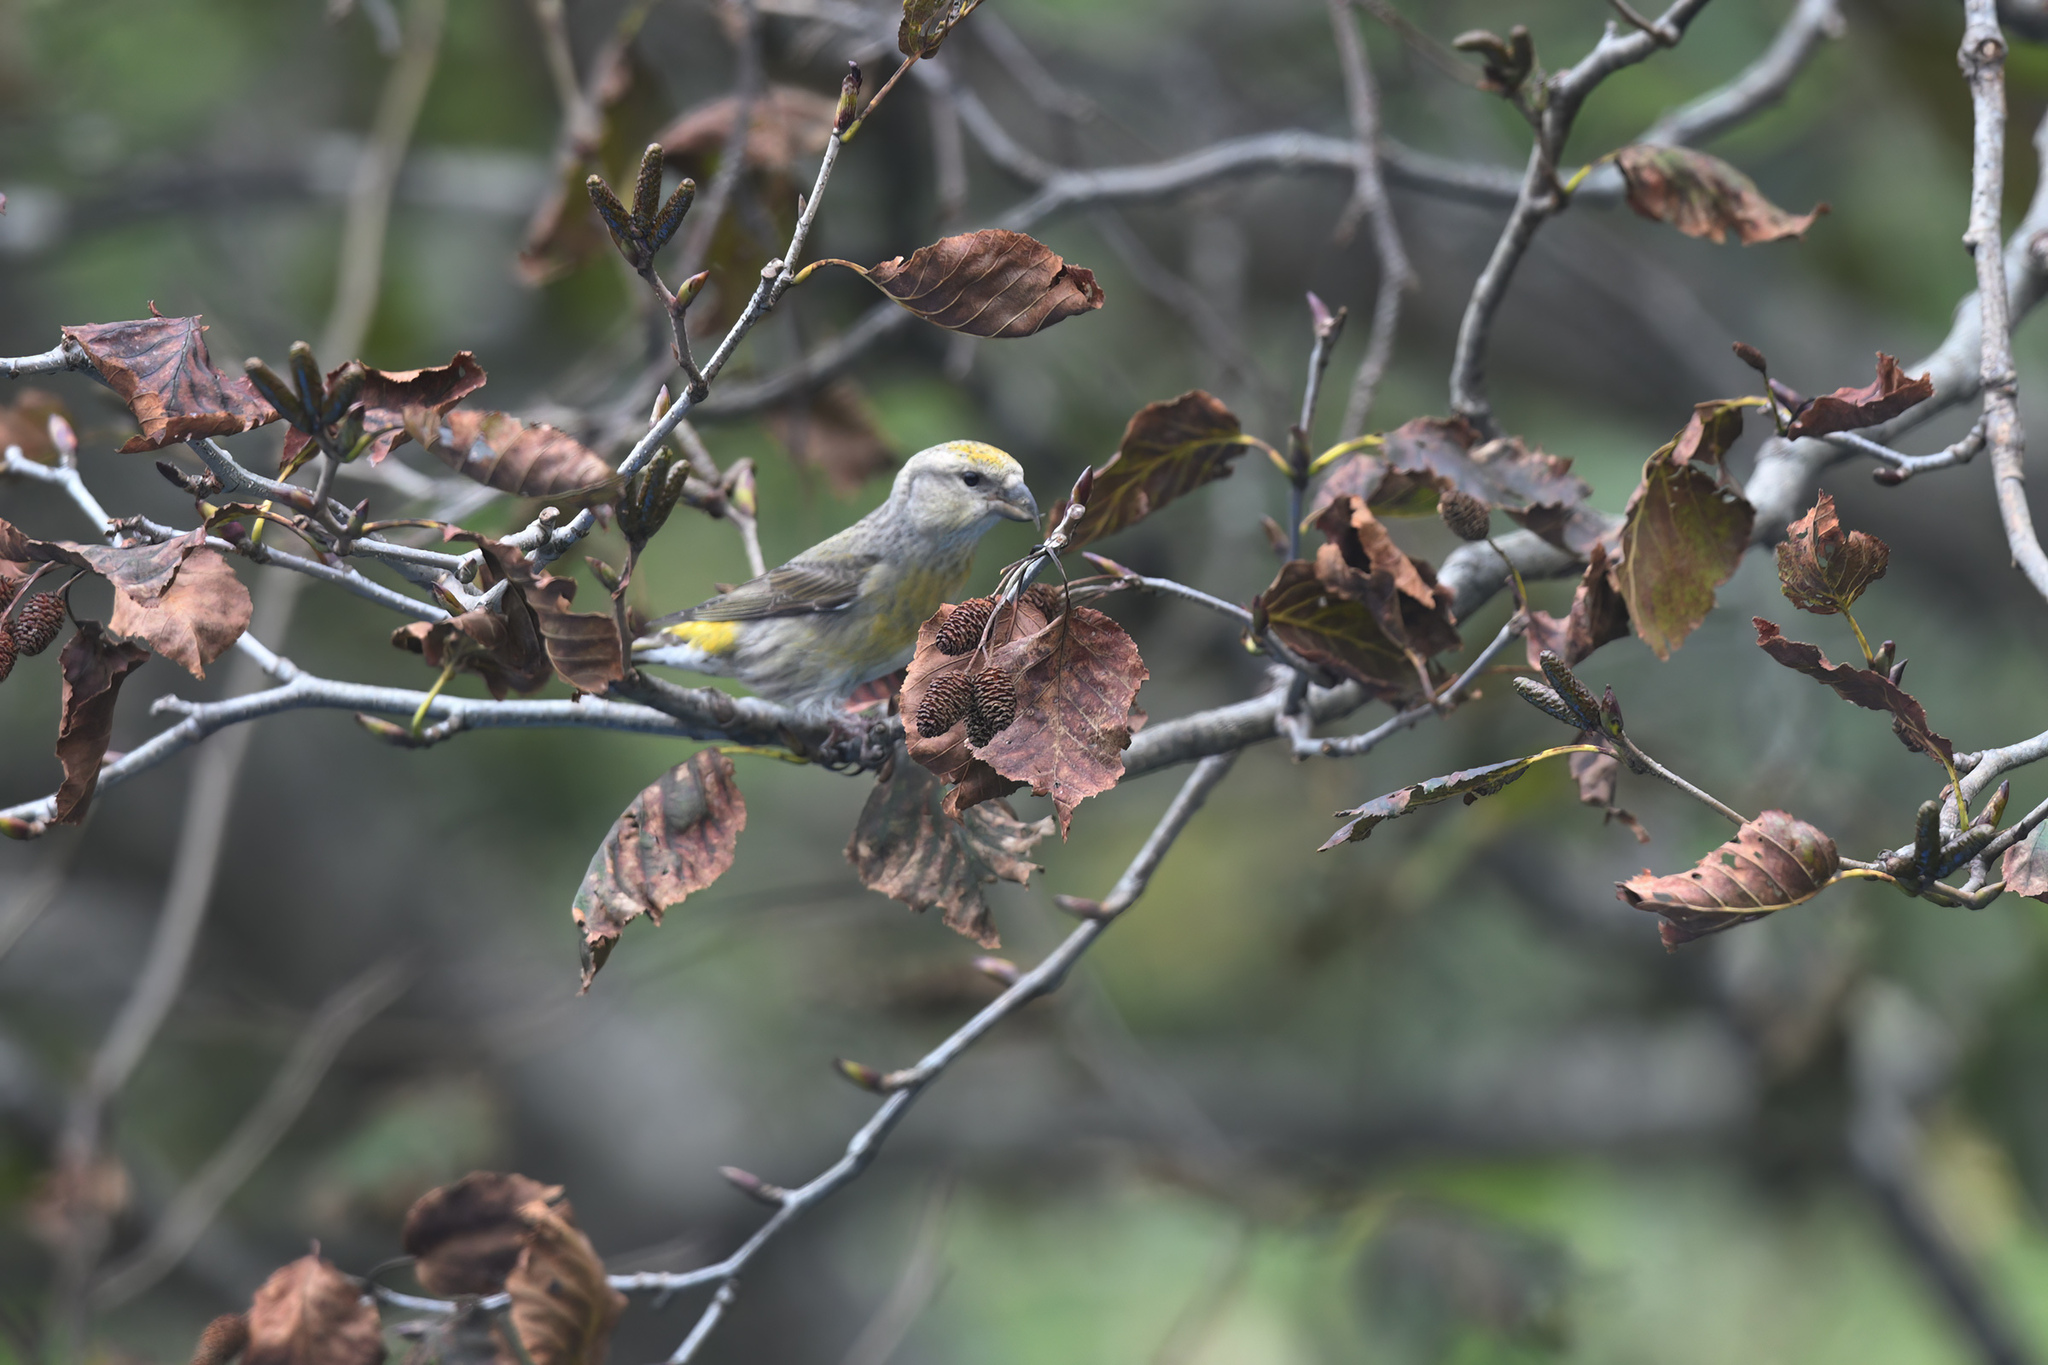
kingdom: Animalia
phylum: Chordata
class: Aves
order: Passeriformes
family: Fringillidae
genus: Loxia
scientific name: Loxia curvirostra
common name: Red crossbill
